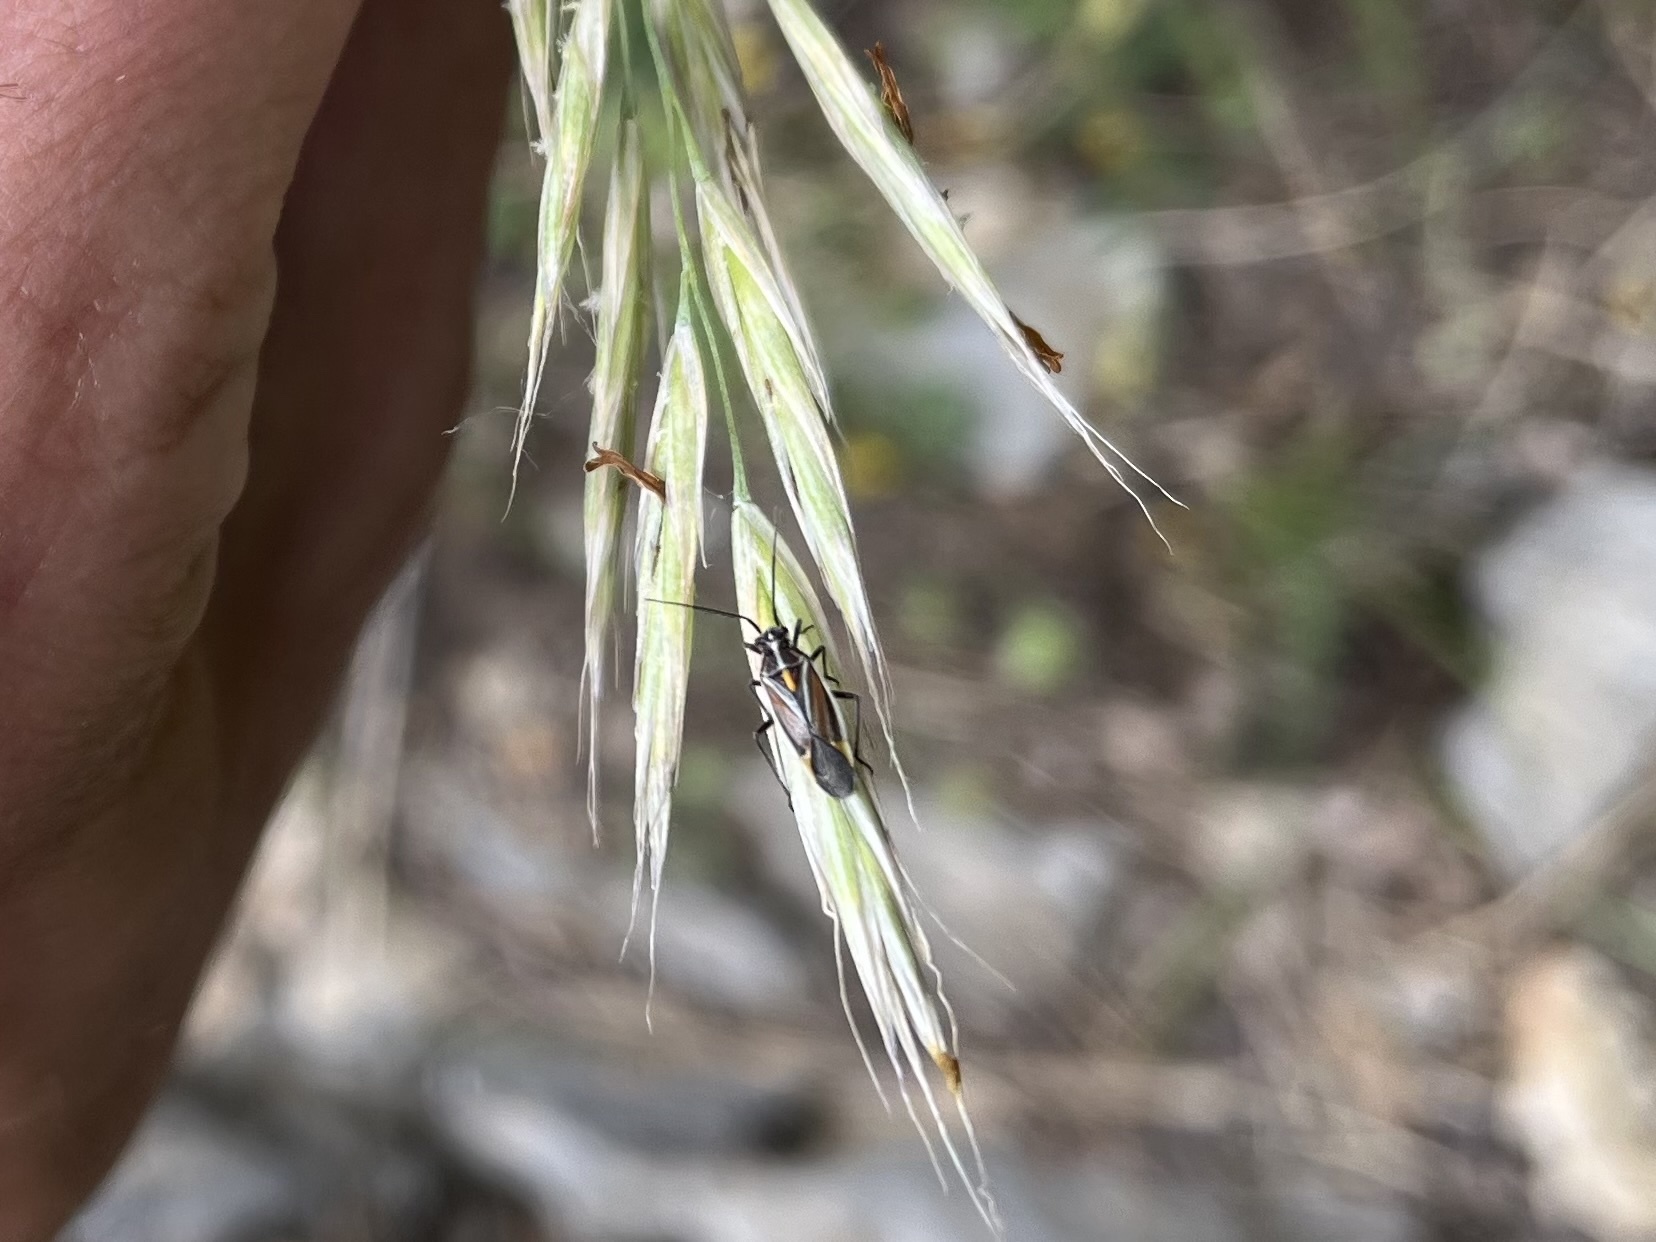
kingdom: Animalia
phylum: Arthropoda
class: Insecta
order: Hemiptera
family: Miridae
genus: Horistus
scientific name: Horistus orientalis
